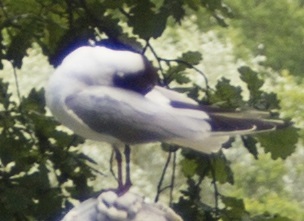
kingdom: Animalia
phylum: Chordata
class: Aves
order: Charadriiformes
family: Laridae
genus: Chroicocephalus
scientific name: Chroicocephalus ridibundus
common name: Black-headed gull
